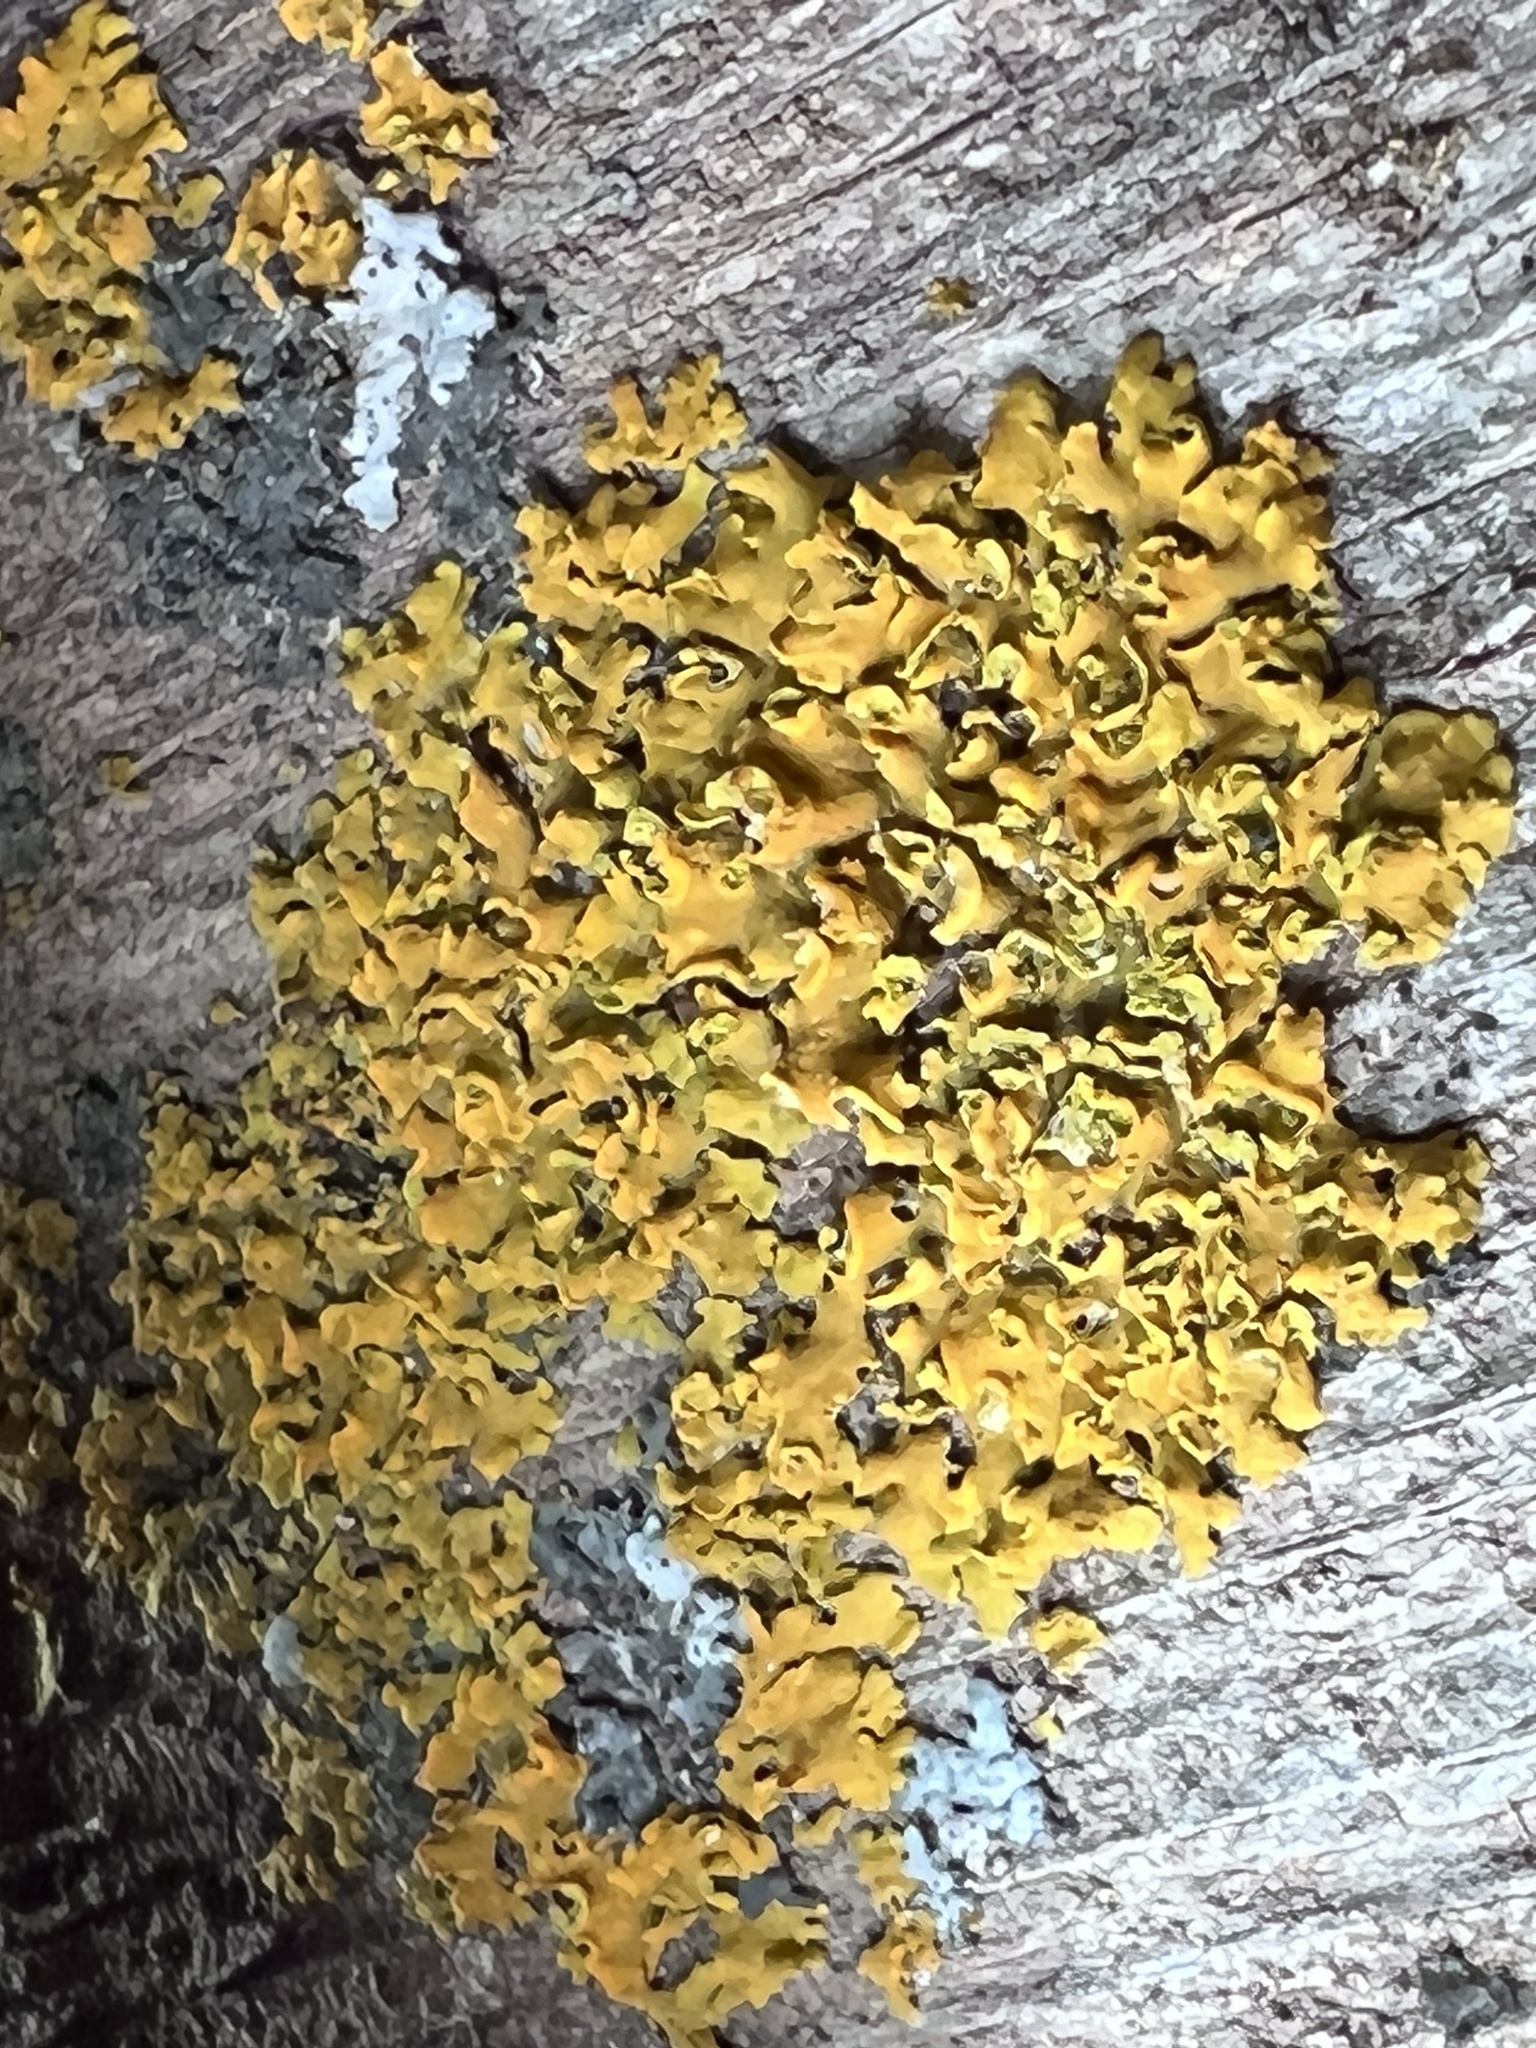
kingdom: Fungi
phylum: Ascomycota
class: Lecanoromycetes
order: Teloschistales
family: Teloschistaceae
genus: Oxneria
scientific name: Oxneria fallax
